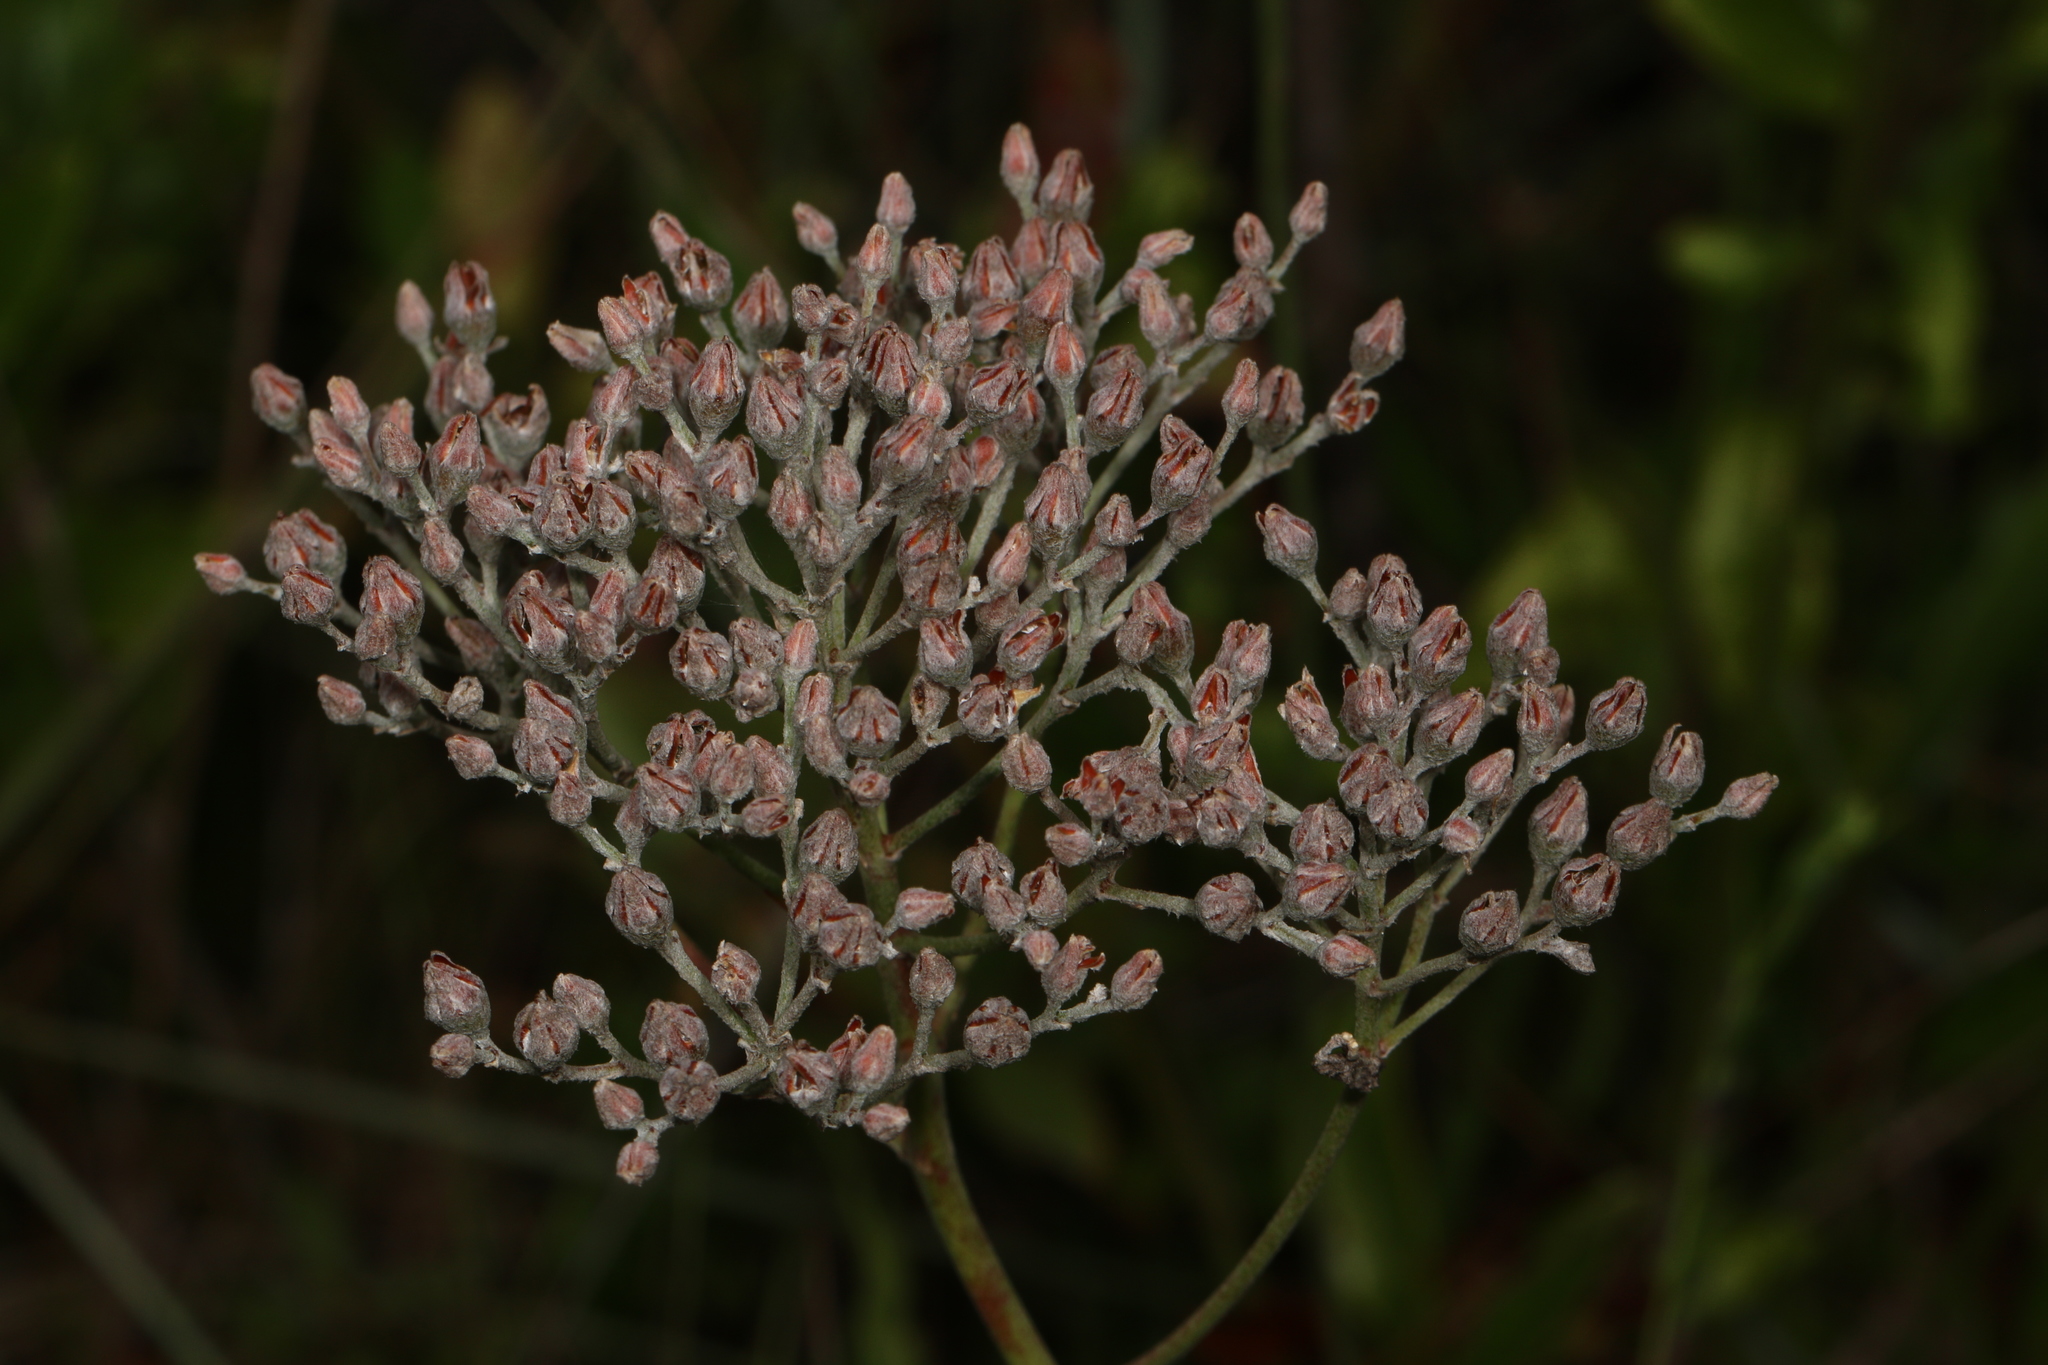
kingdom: Plantae
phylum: Tracheophyta
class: Liliopsida
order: Dioscoreales
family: Nartheciaceae
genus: Lophiola
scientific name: Lophiola aurea
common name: Golden-crest
